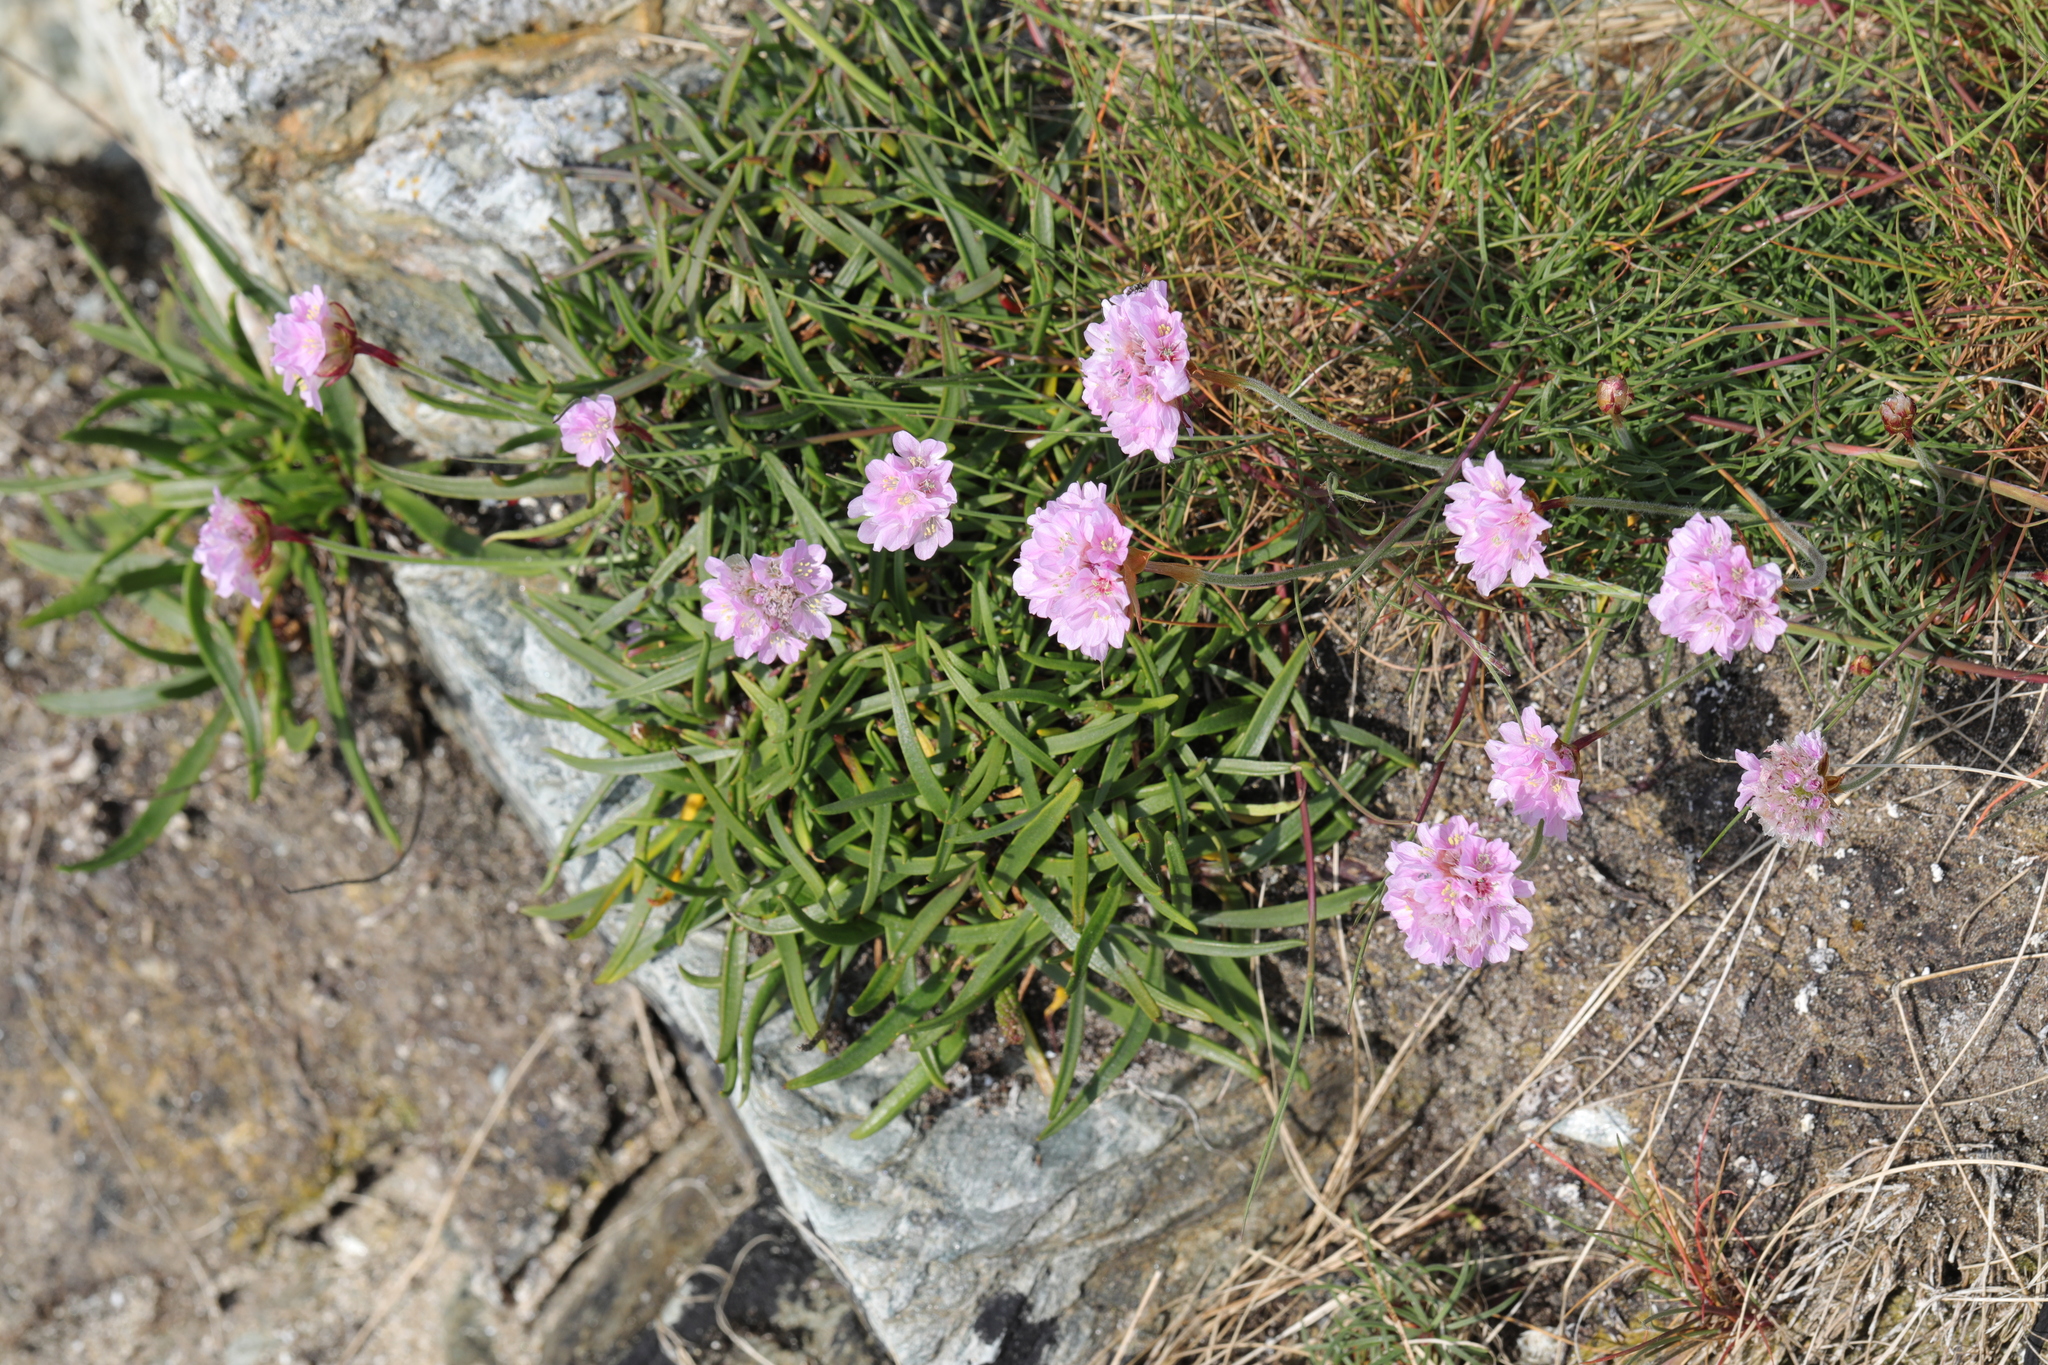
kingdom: Plantae
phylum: Tracheophyta
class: Magnoliopsida
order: Caryophyllales
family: Plumbaginaceae
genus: Armeria
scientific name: Armeria maritima
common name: Thrift
